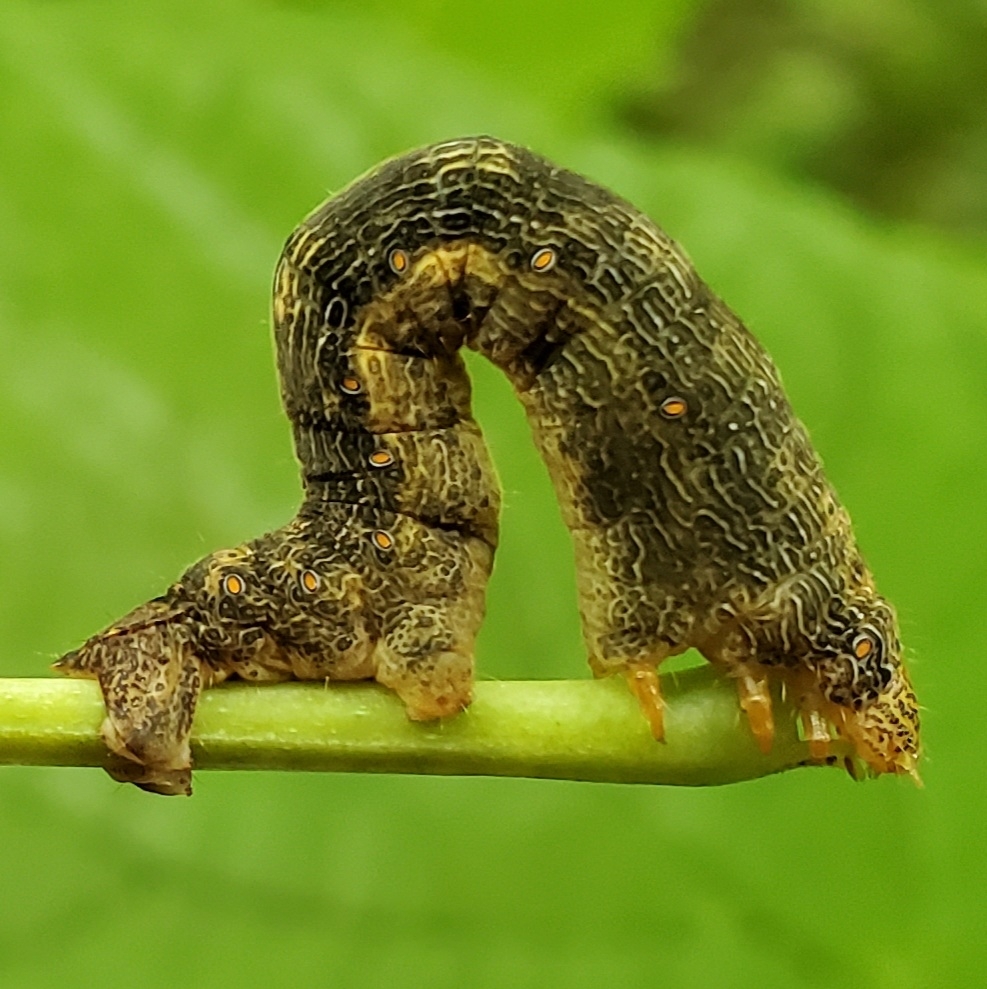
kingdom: Animalia
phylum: Arthropoda
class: Insecta
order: Lepidoptera
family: Geometridae
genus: Epimecis
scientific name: Epimecis hortaria
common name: Tulip-tree beauty
